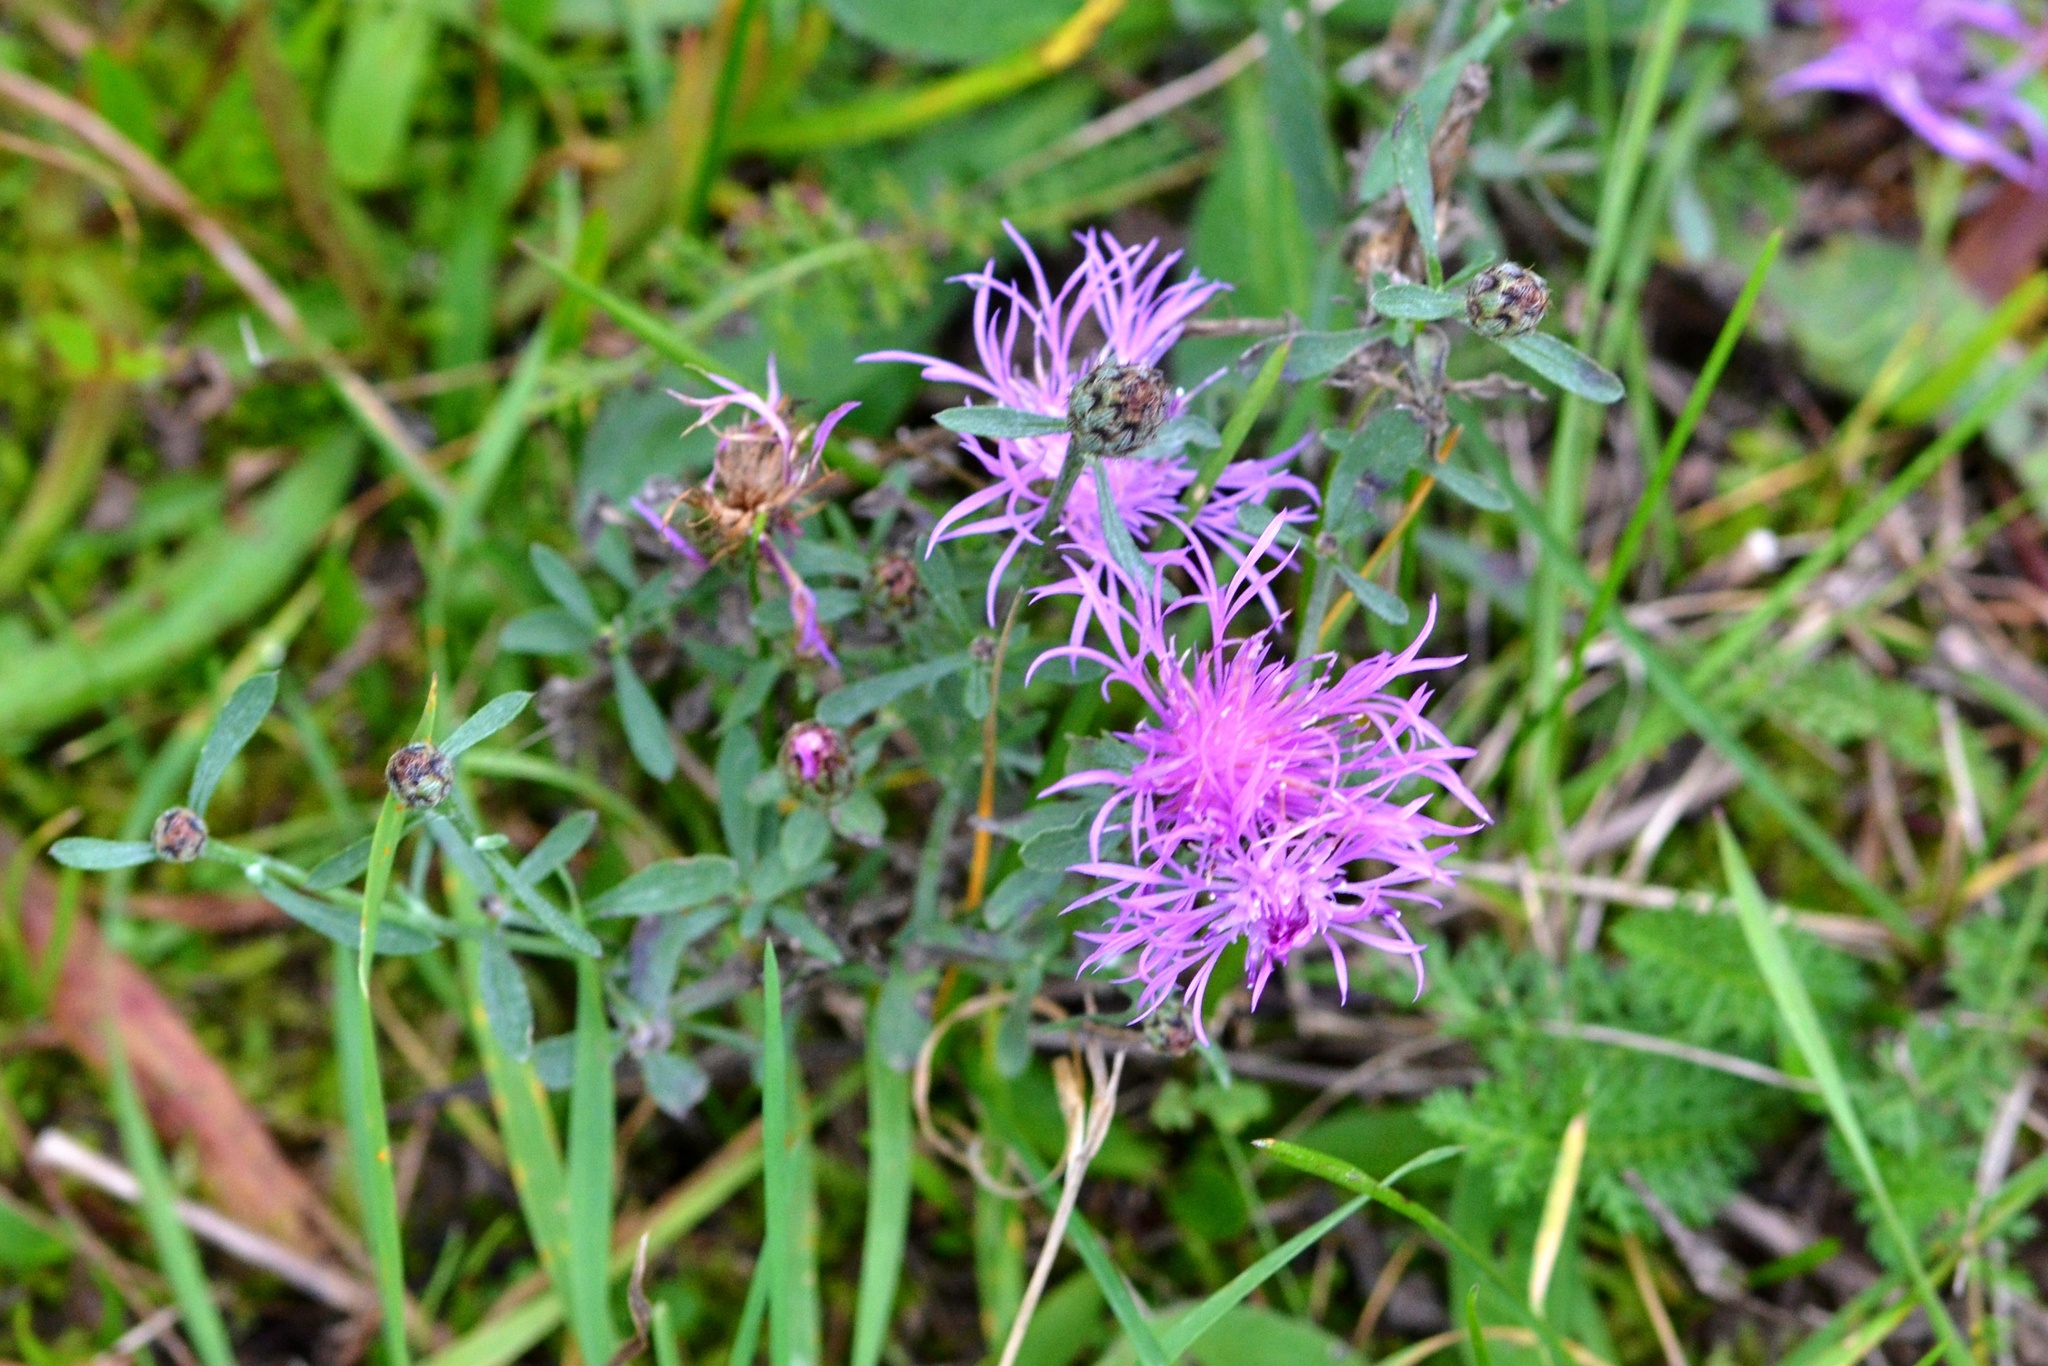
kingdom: Plantae
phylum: Tracheophyta
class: Magnoliopsida
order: Asterales
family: Asteraceae
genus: Centaurea
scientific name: Centaurea stoebe
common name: Spotted knapweed
